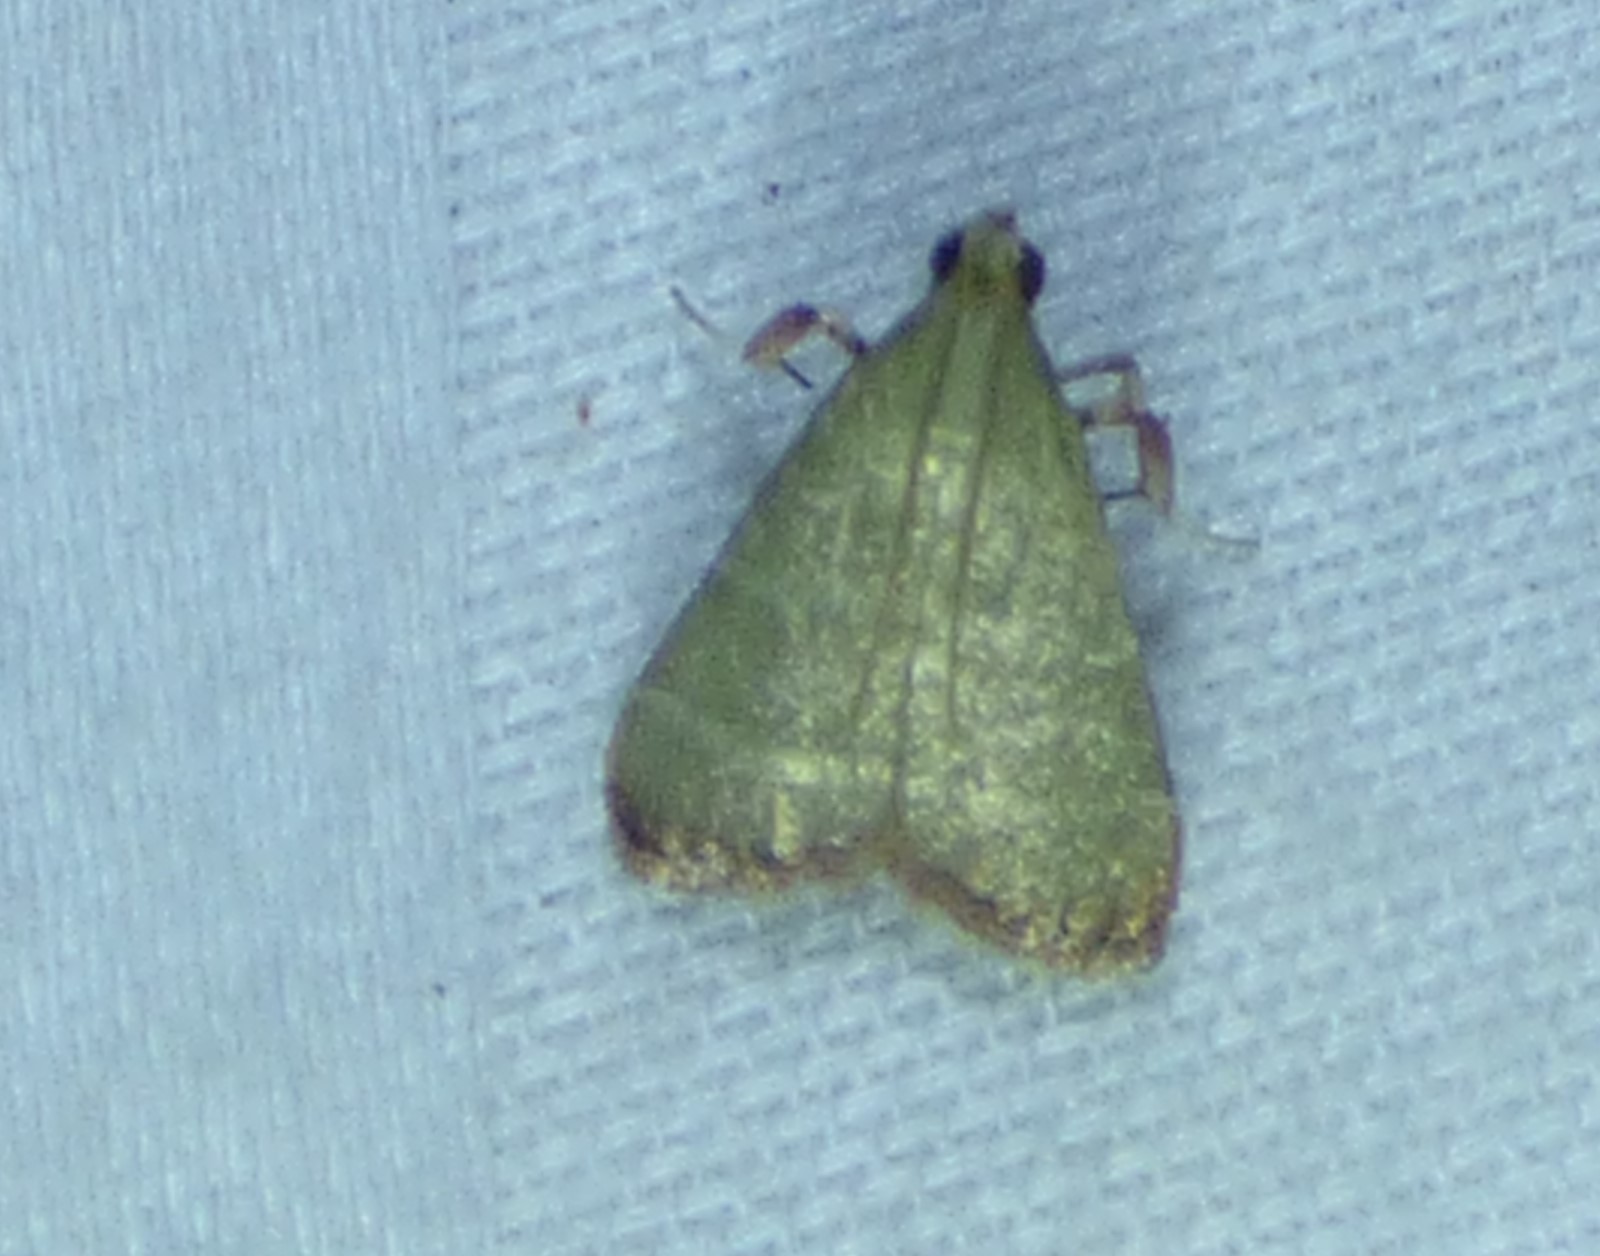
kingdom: Animalia
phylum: Arthropoda
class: Insecta
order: Lepidoptera
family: Pyralidae
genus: Arta
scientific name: Arta olivalis
